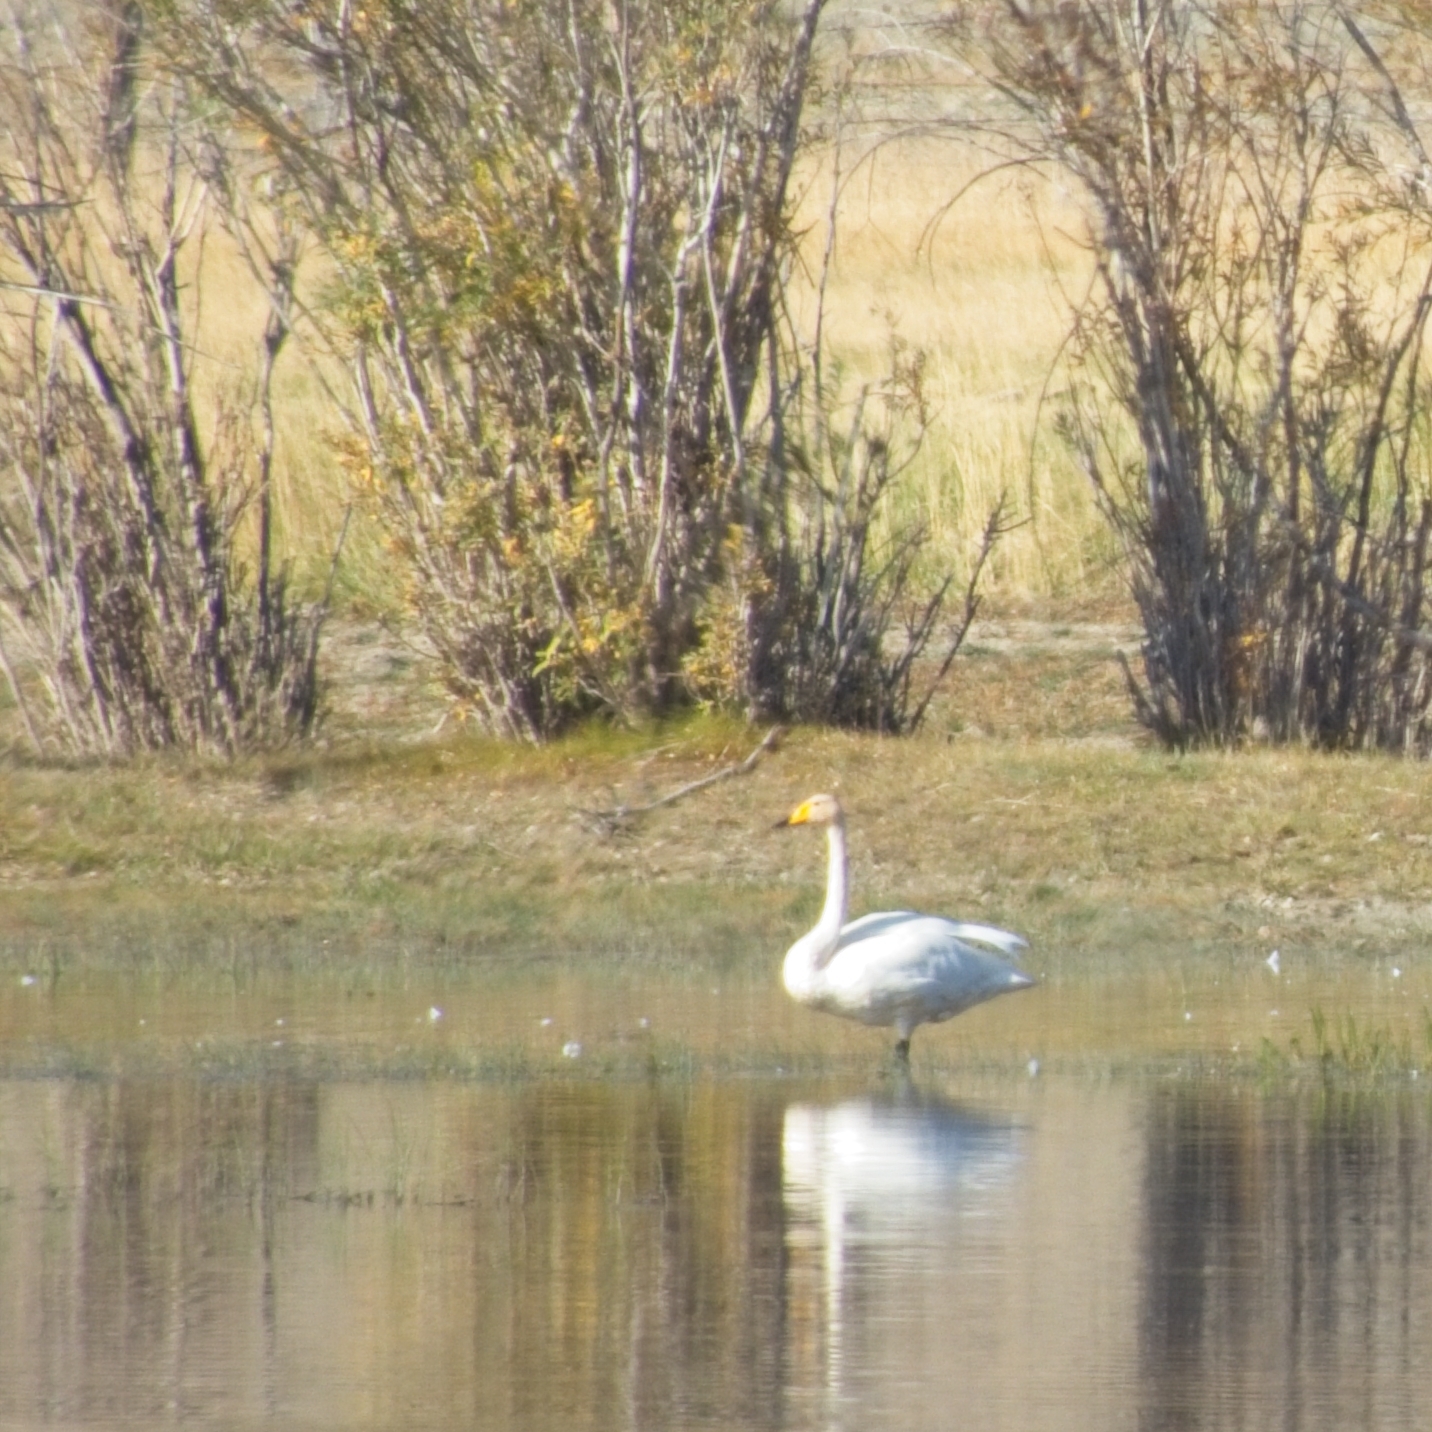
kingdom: Animalia
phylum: Chordata
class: Aves
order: Anseriformes
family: Anatidae
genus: Cygnus
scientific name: Cygnus cygnus
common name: Whooper swan
